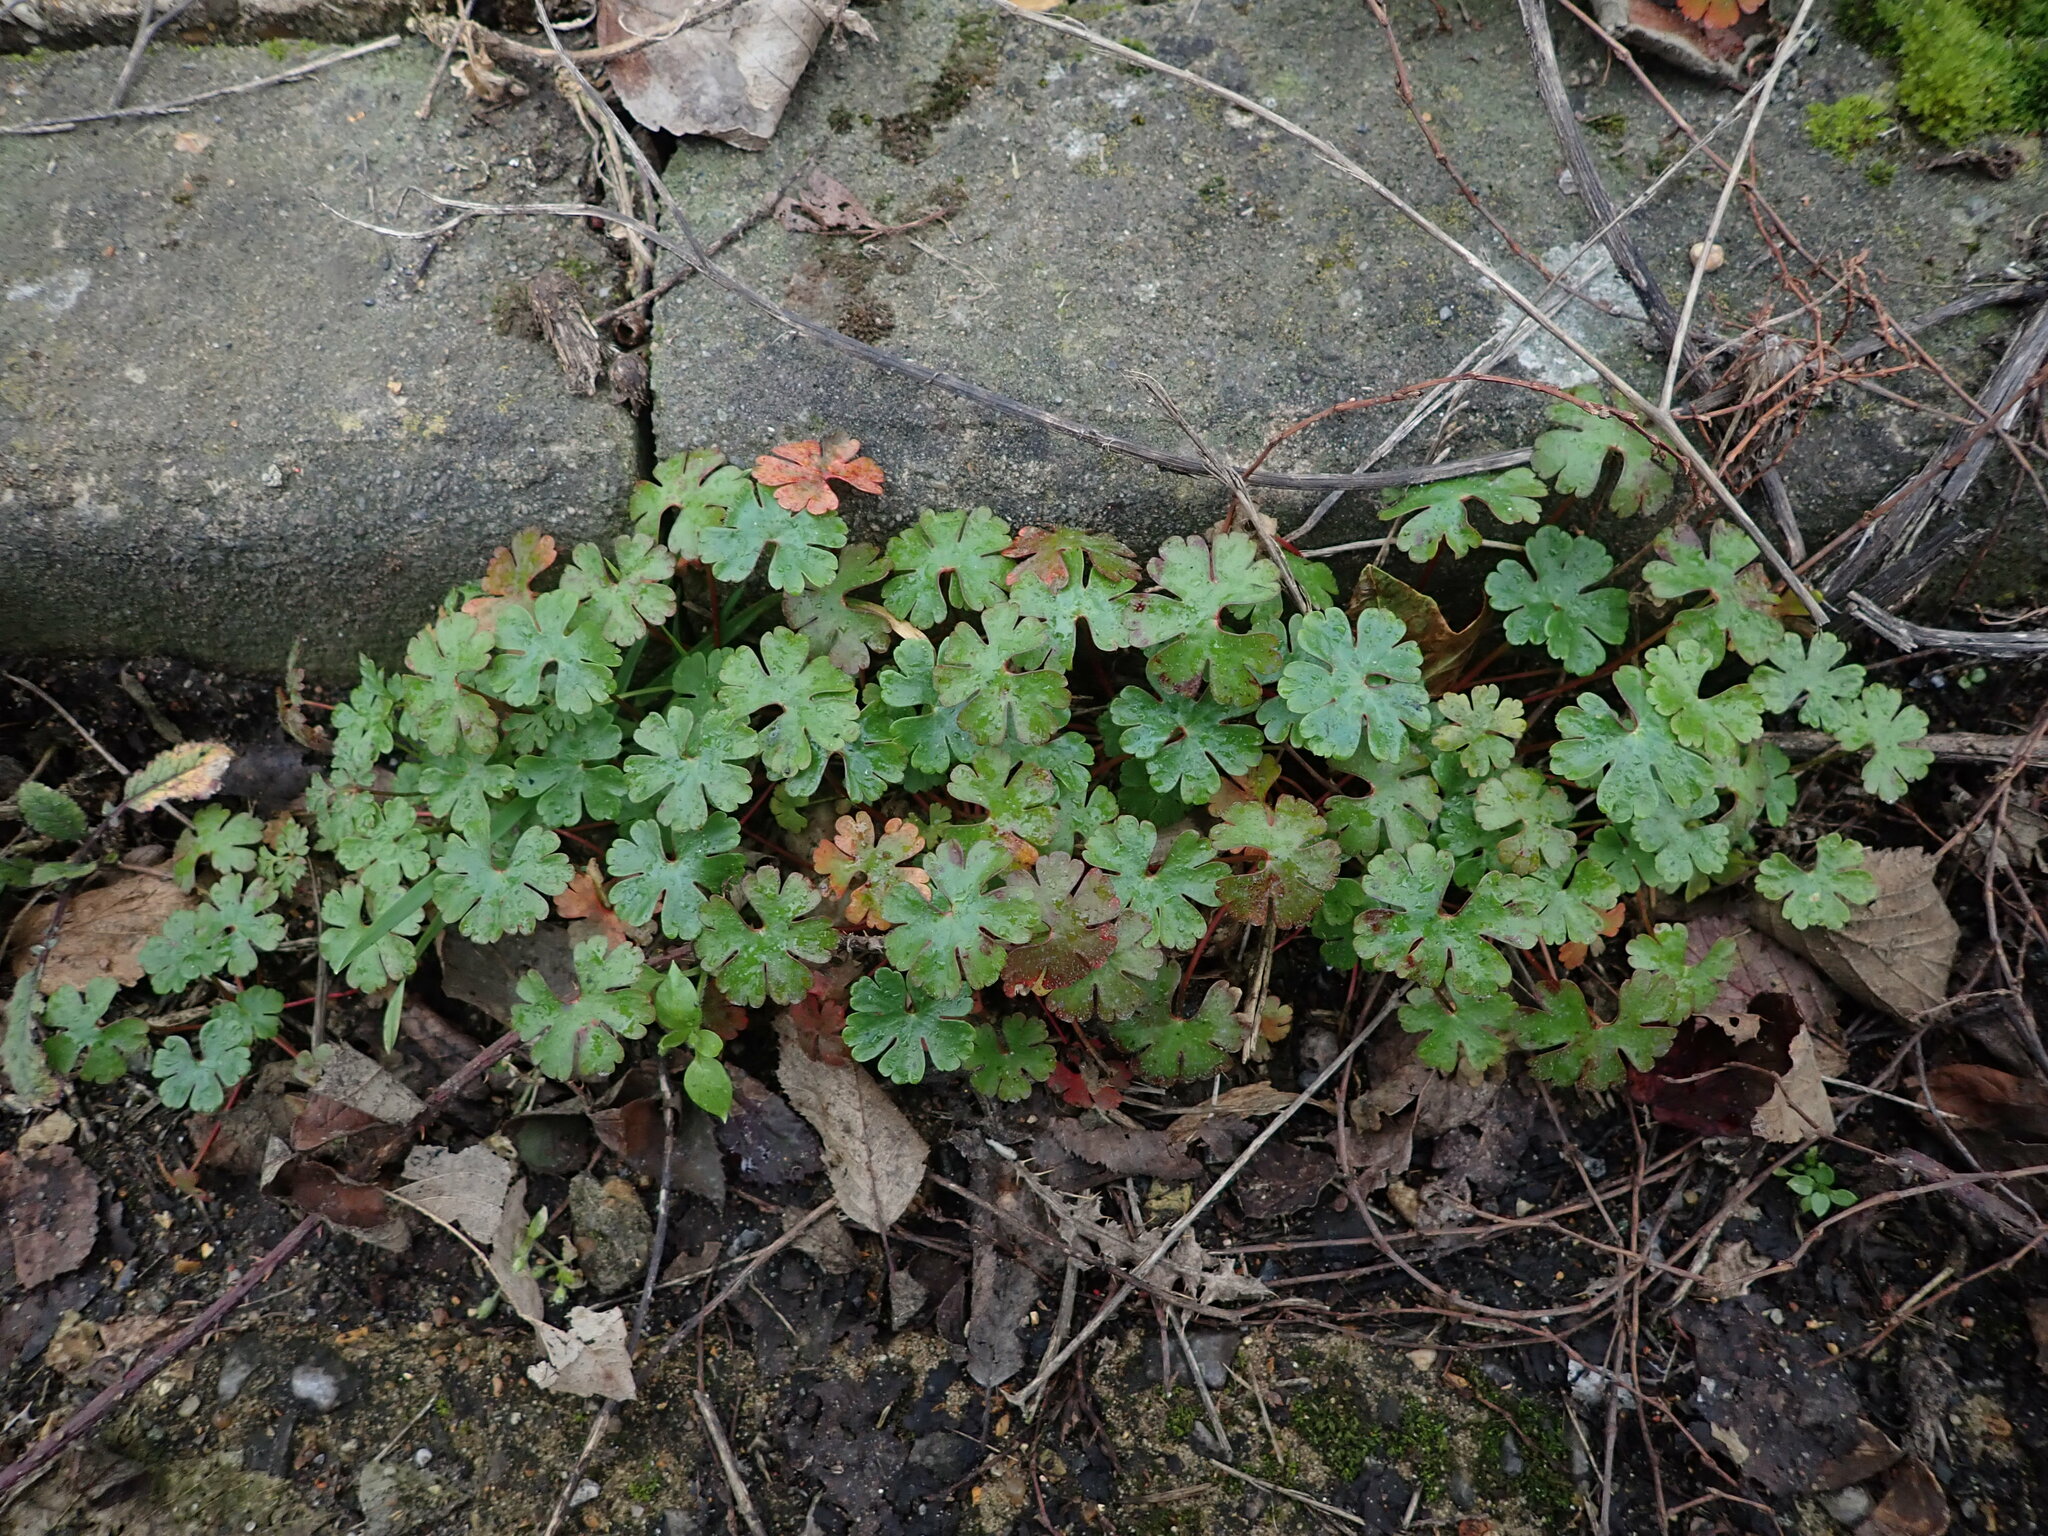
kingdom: Plantae
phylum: Tracheophyta
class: Magnoliopsida
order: Geraniales
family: Geraniaceae
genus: Geranium
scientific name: Geranium lucidum
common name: Shining crane's-bill
